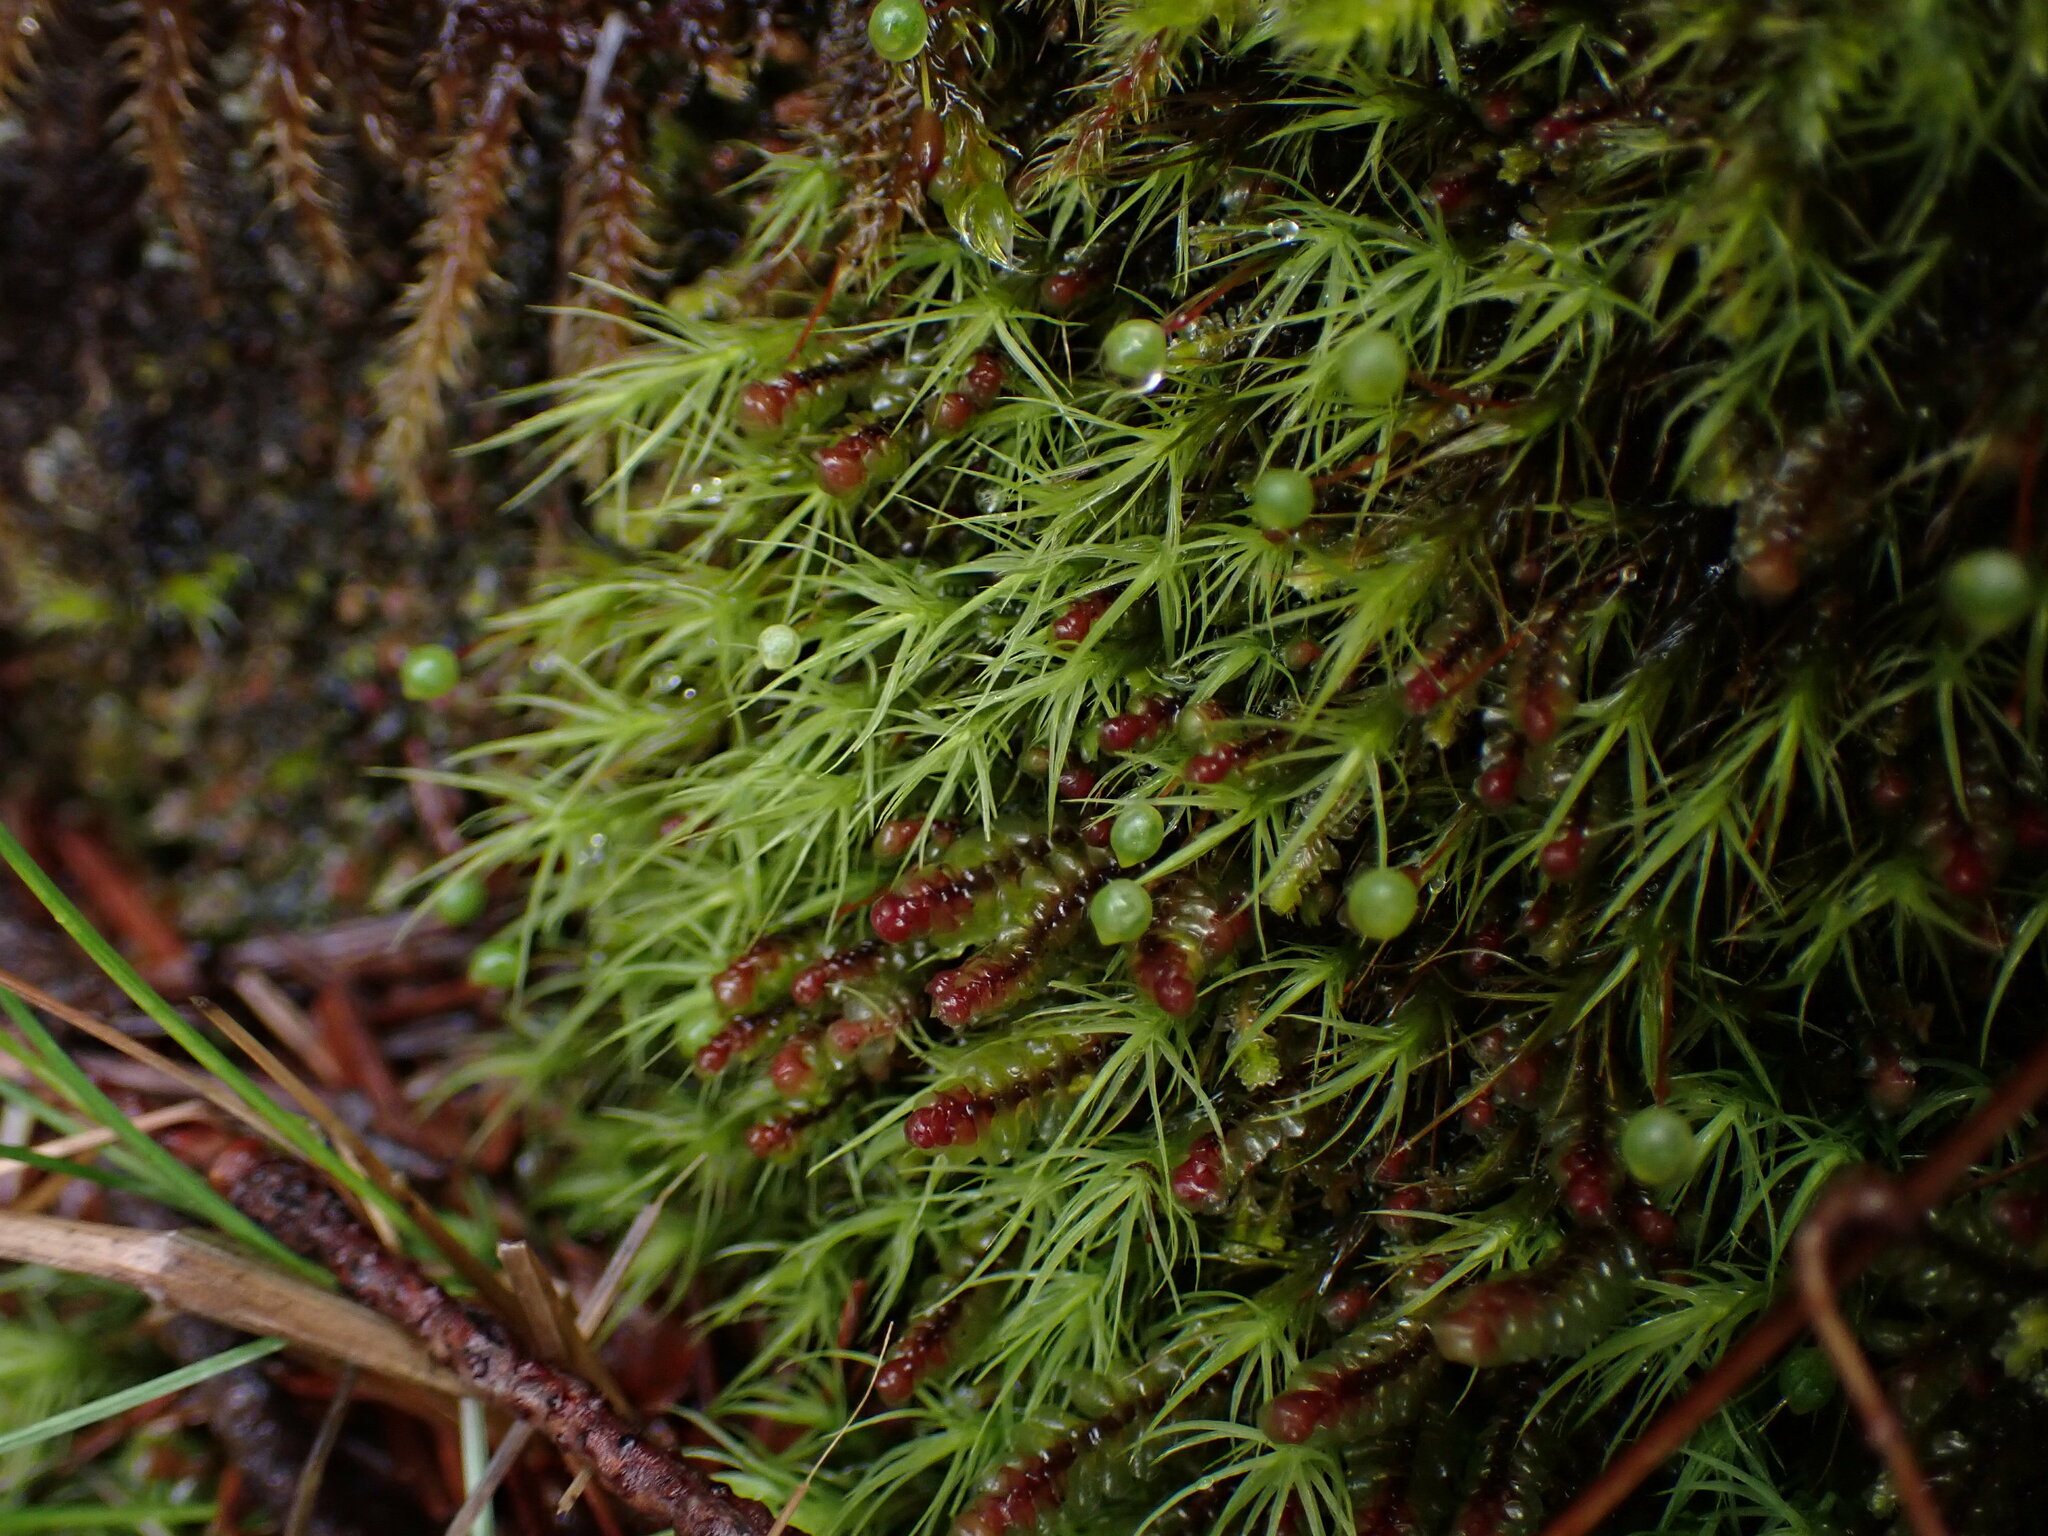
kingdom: Plantae
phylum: Bryophyta
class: Bryopsida
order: Bartramiales
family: Bartramiaceae
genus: Bartramia
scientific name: Bartramia ithyphylla
